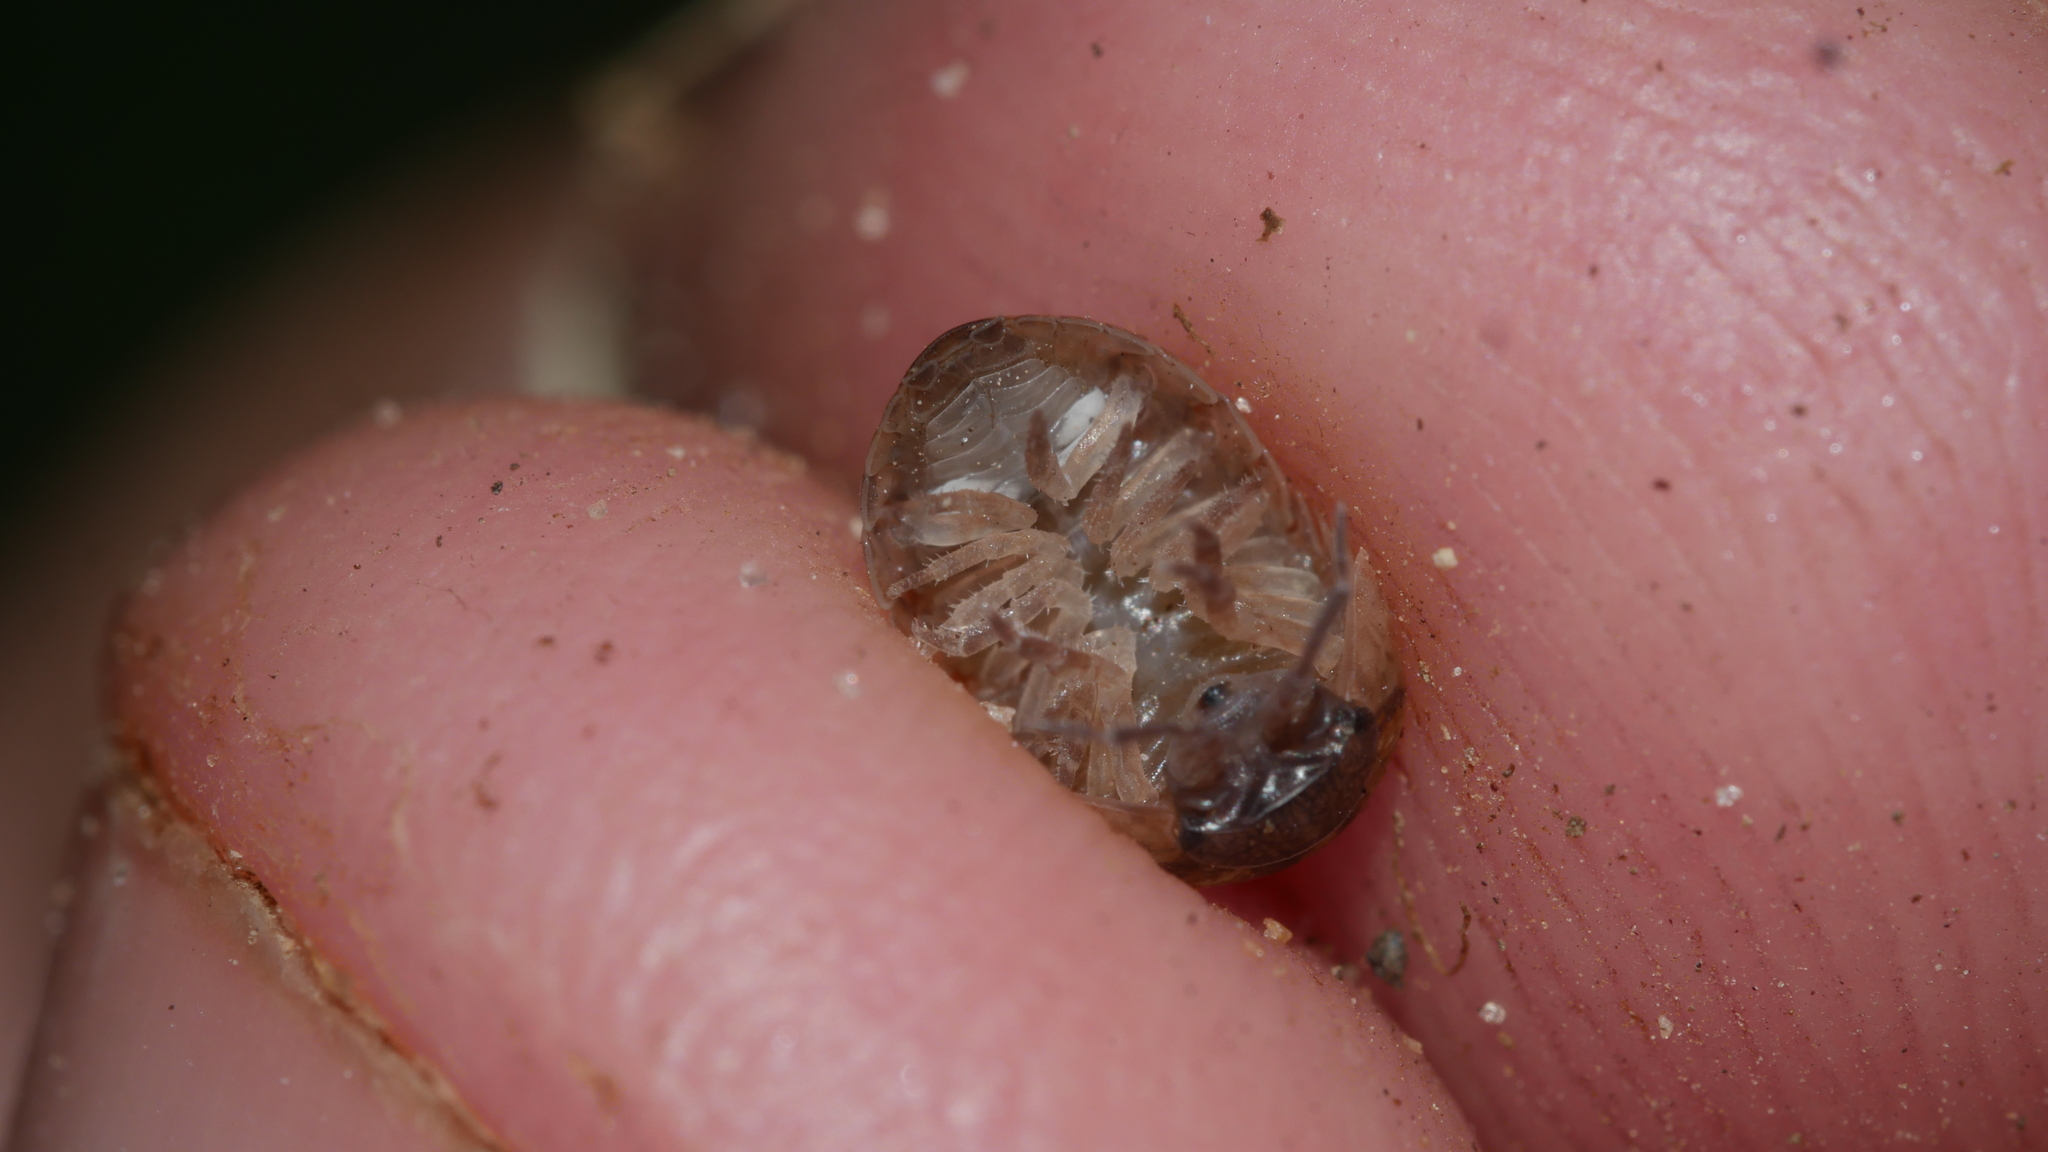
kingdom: Animalia
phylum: Arthropoda
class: Malacostraca
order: Isopoda
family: Armadillidiidae
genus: Armadillidium
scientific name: Armadillidium vulgare
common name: Common pill woodlouse
